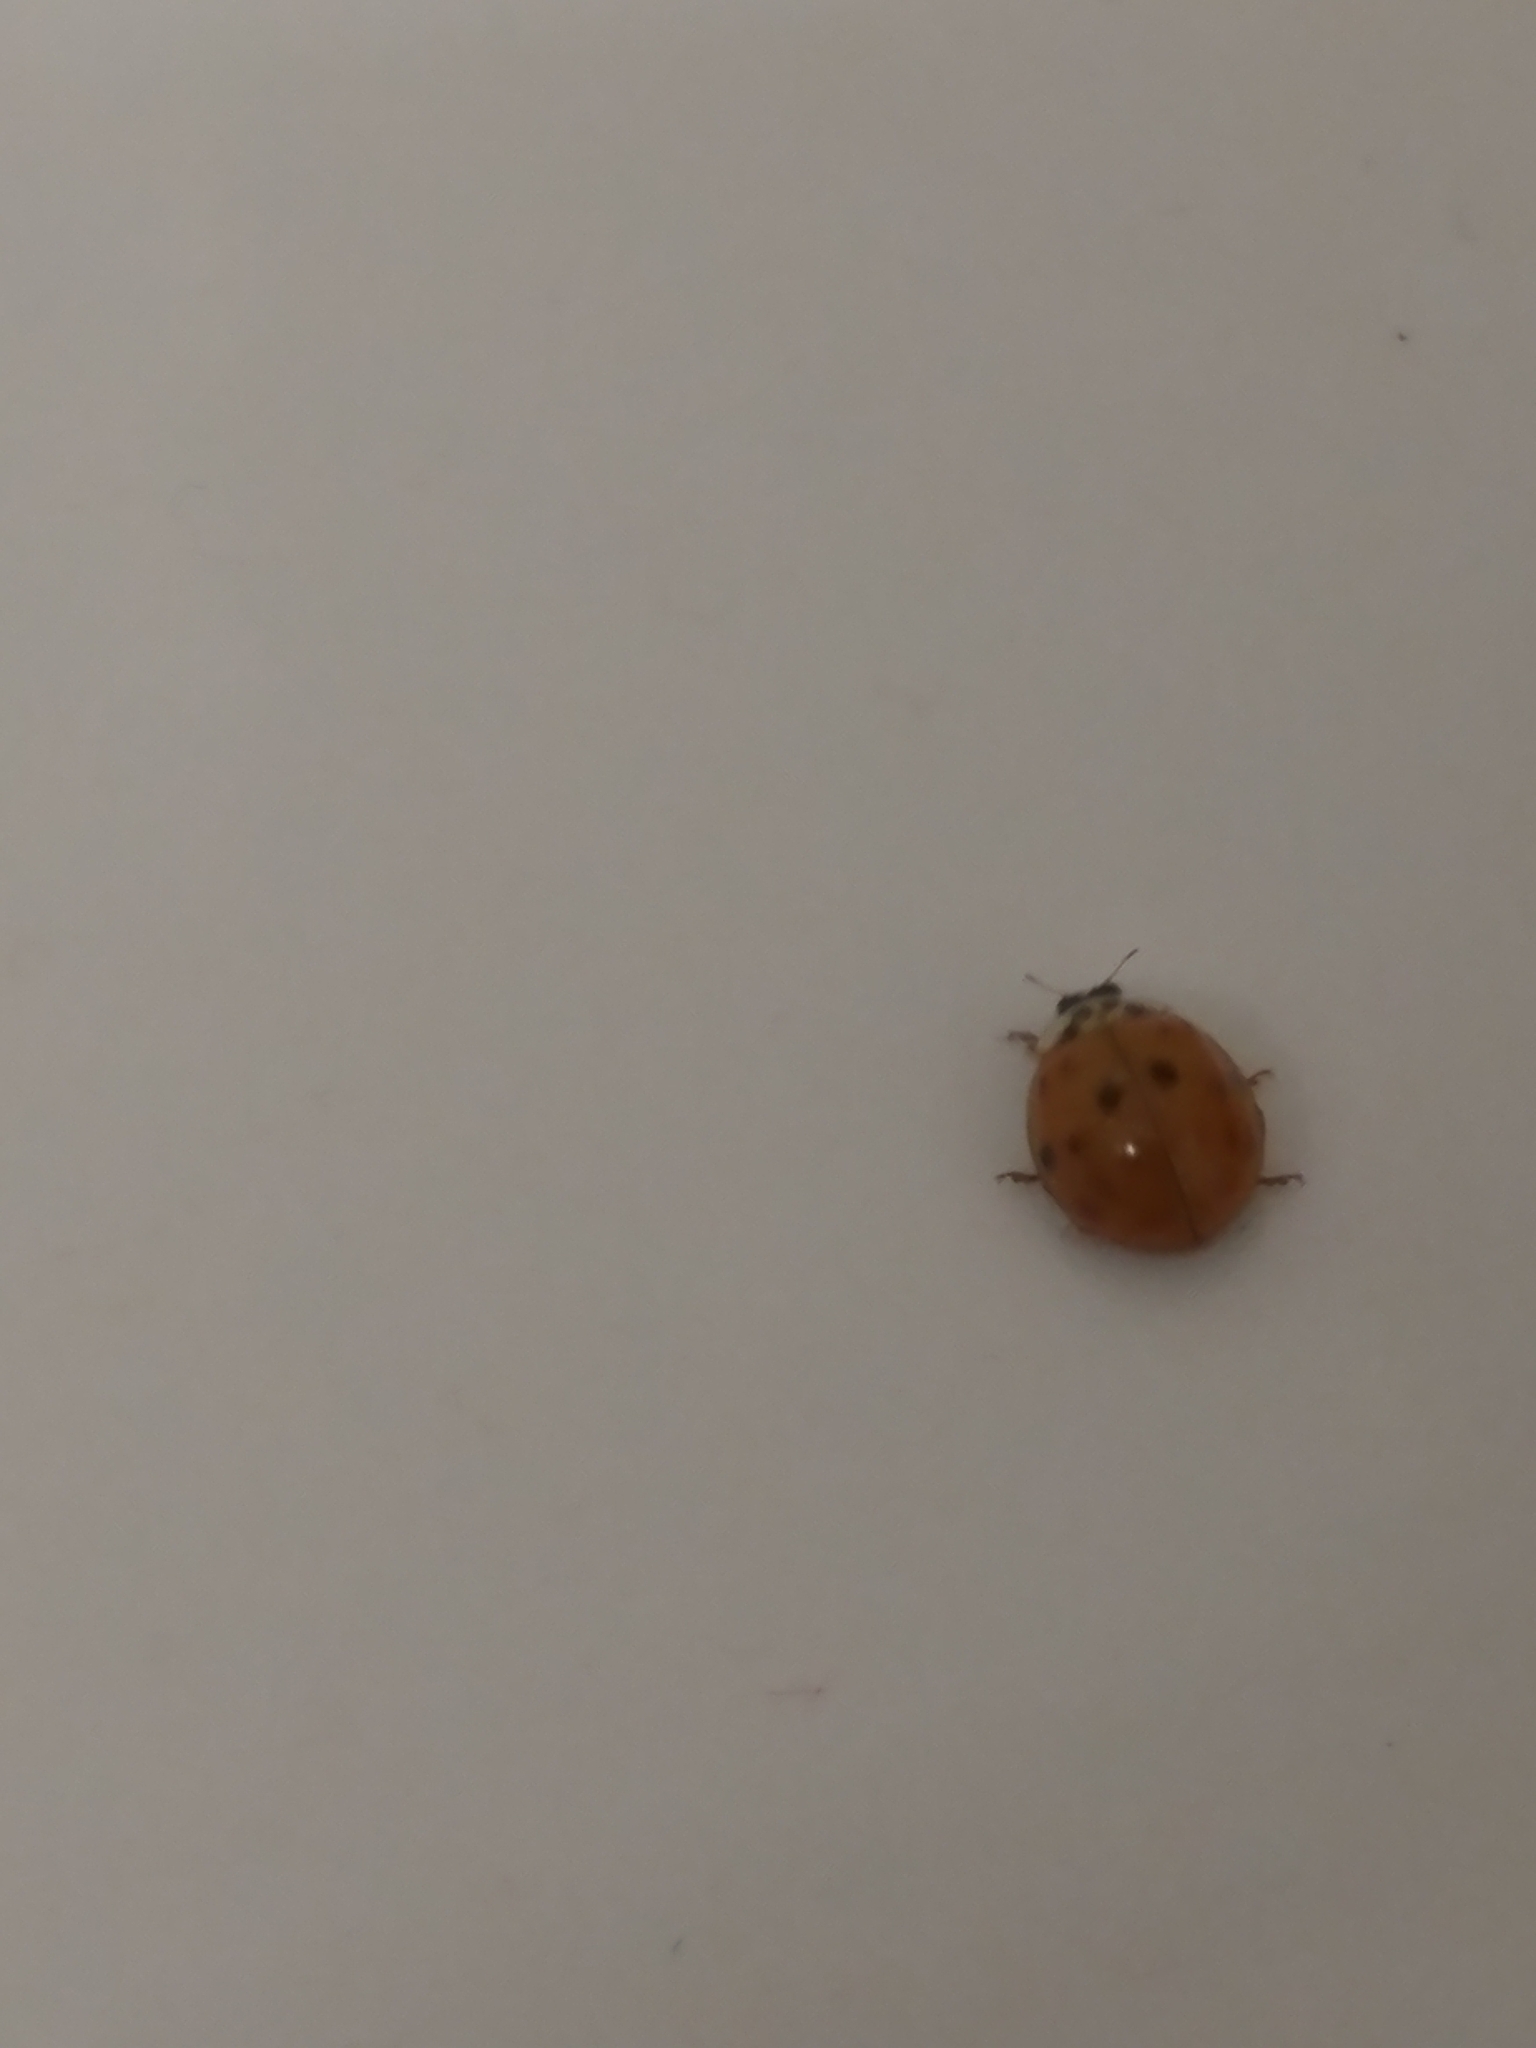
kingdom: Animalia
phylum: Arthropoda
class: Insecta
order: Coleoptera
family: Coccinellidae
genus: Harmonia
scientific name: Harmonia axyridis
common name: Harlequin ladybird
